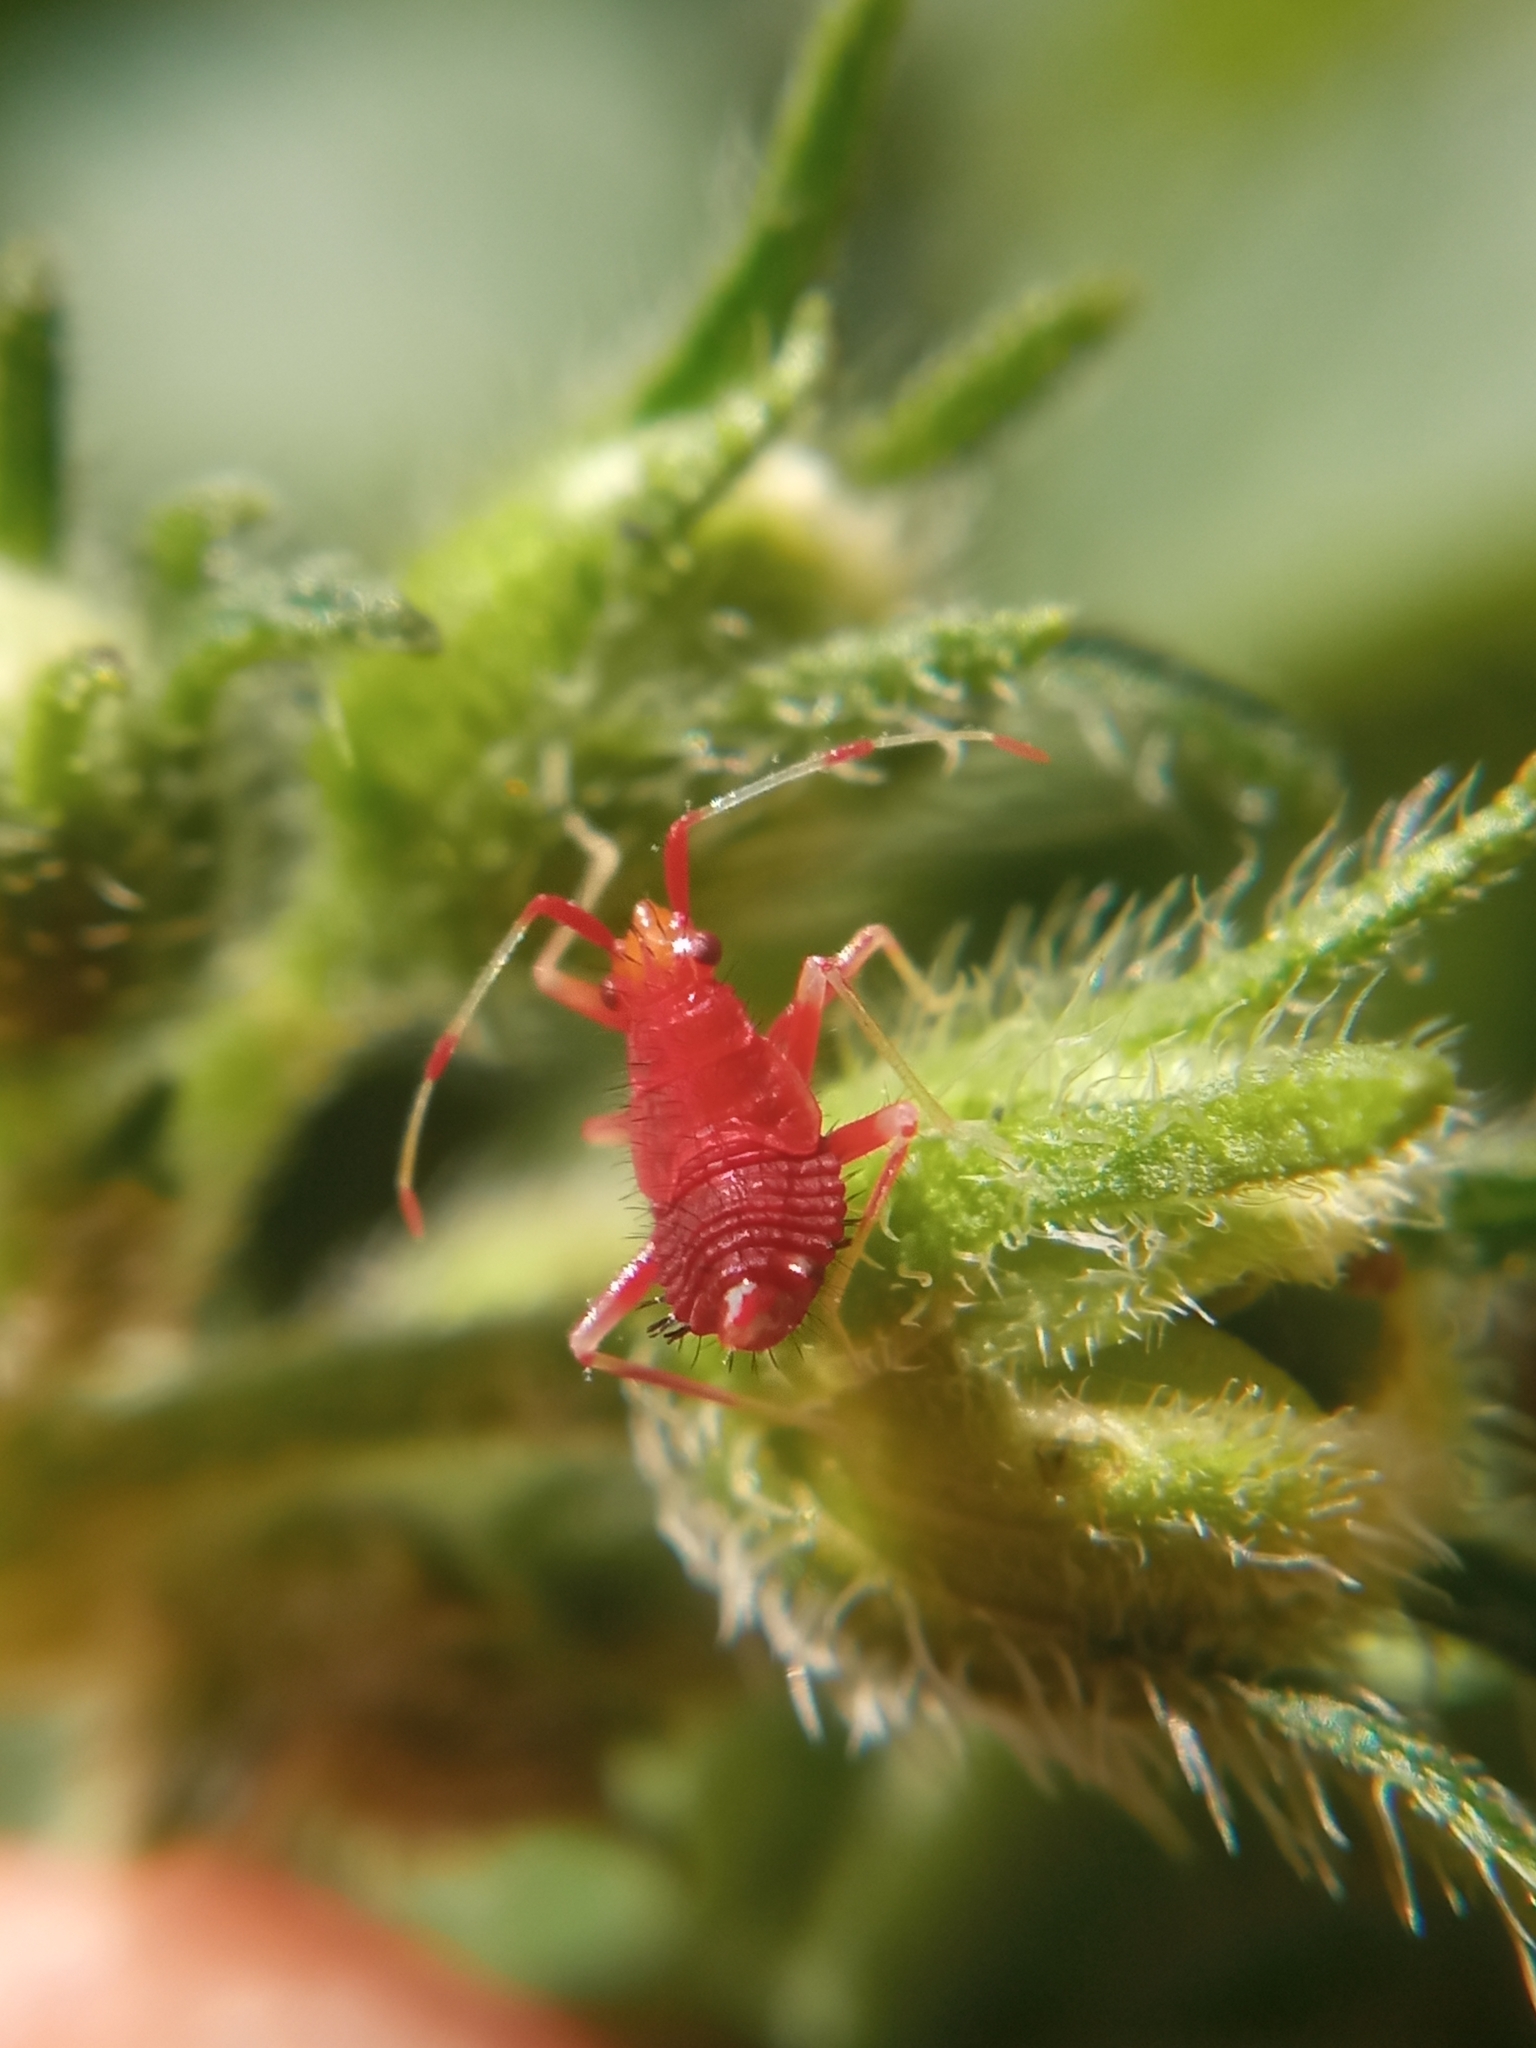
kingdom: Animalia
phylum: Arthropoda
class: Insecta
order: Hemiptera
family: Miridae
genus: Deraeocoris
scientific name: Deraeocoris ruber
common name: Plant bug
